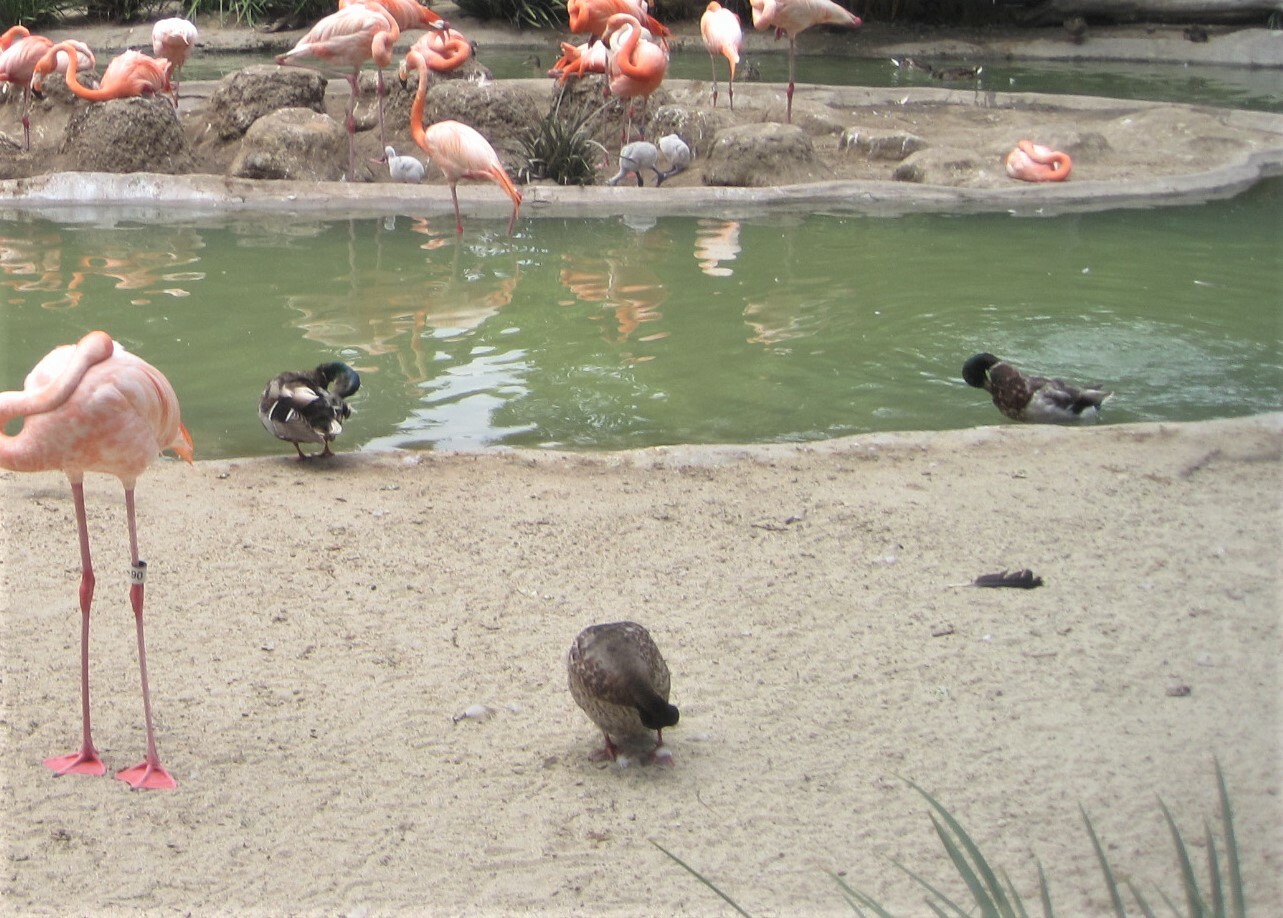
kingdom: Animalia
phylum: Chordata
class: Aves
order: Anseriformes
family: Anatidae
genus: Anas
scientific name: Anas platyrhynchos
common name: Mallard
